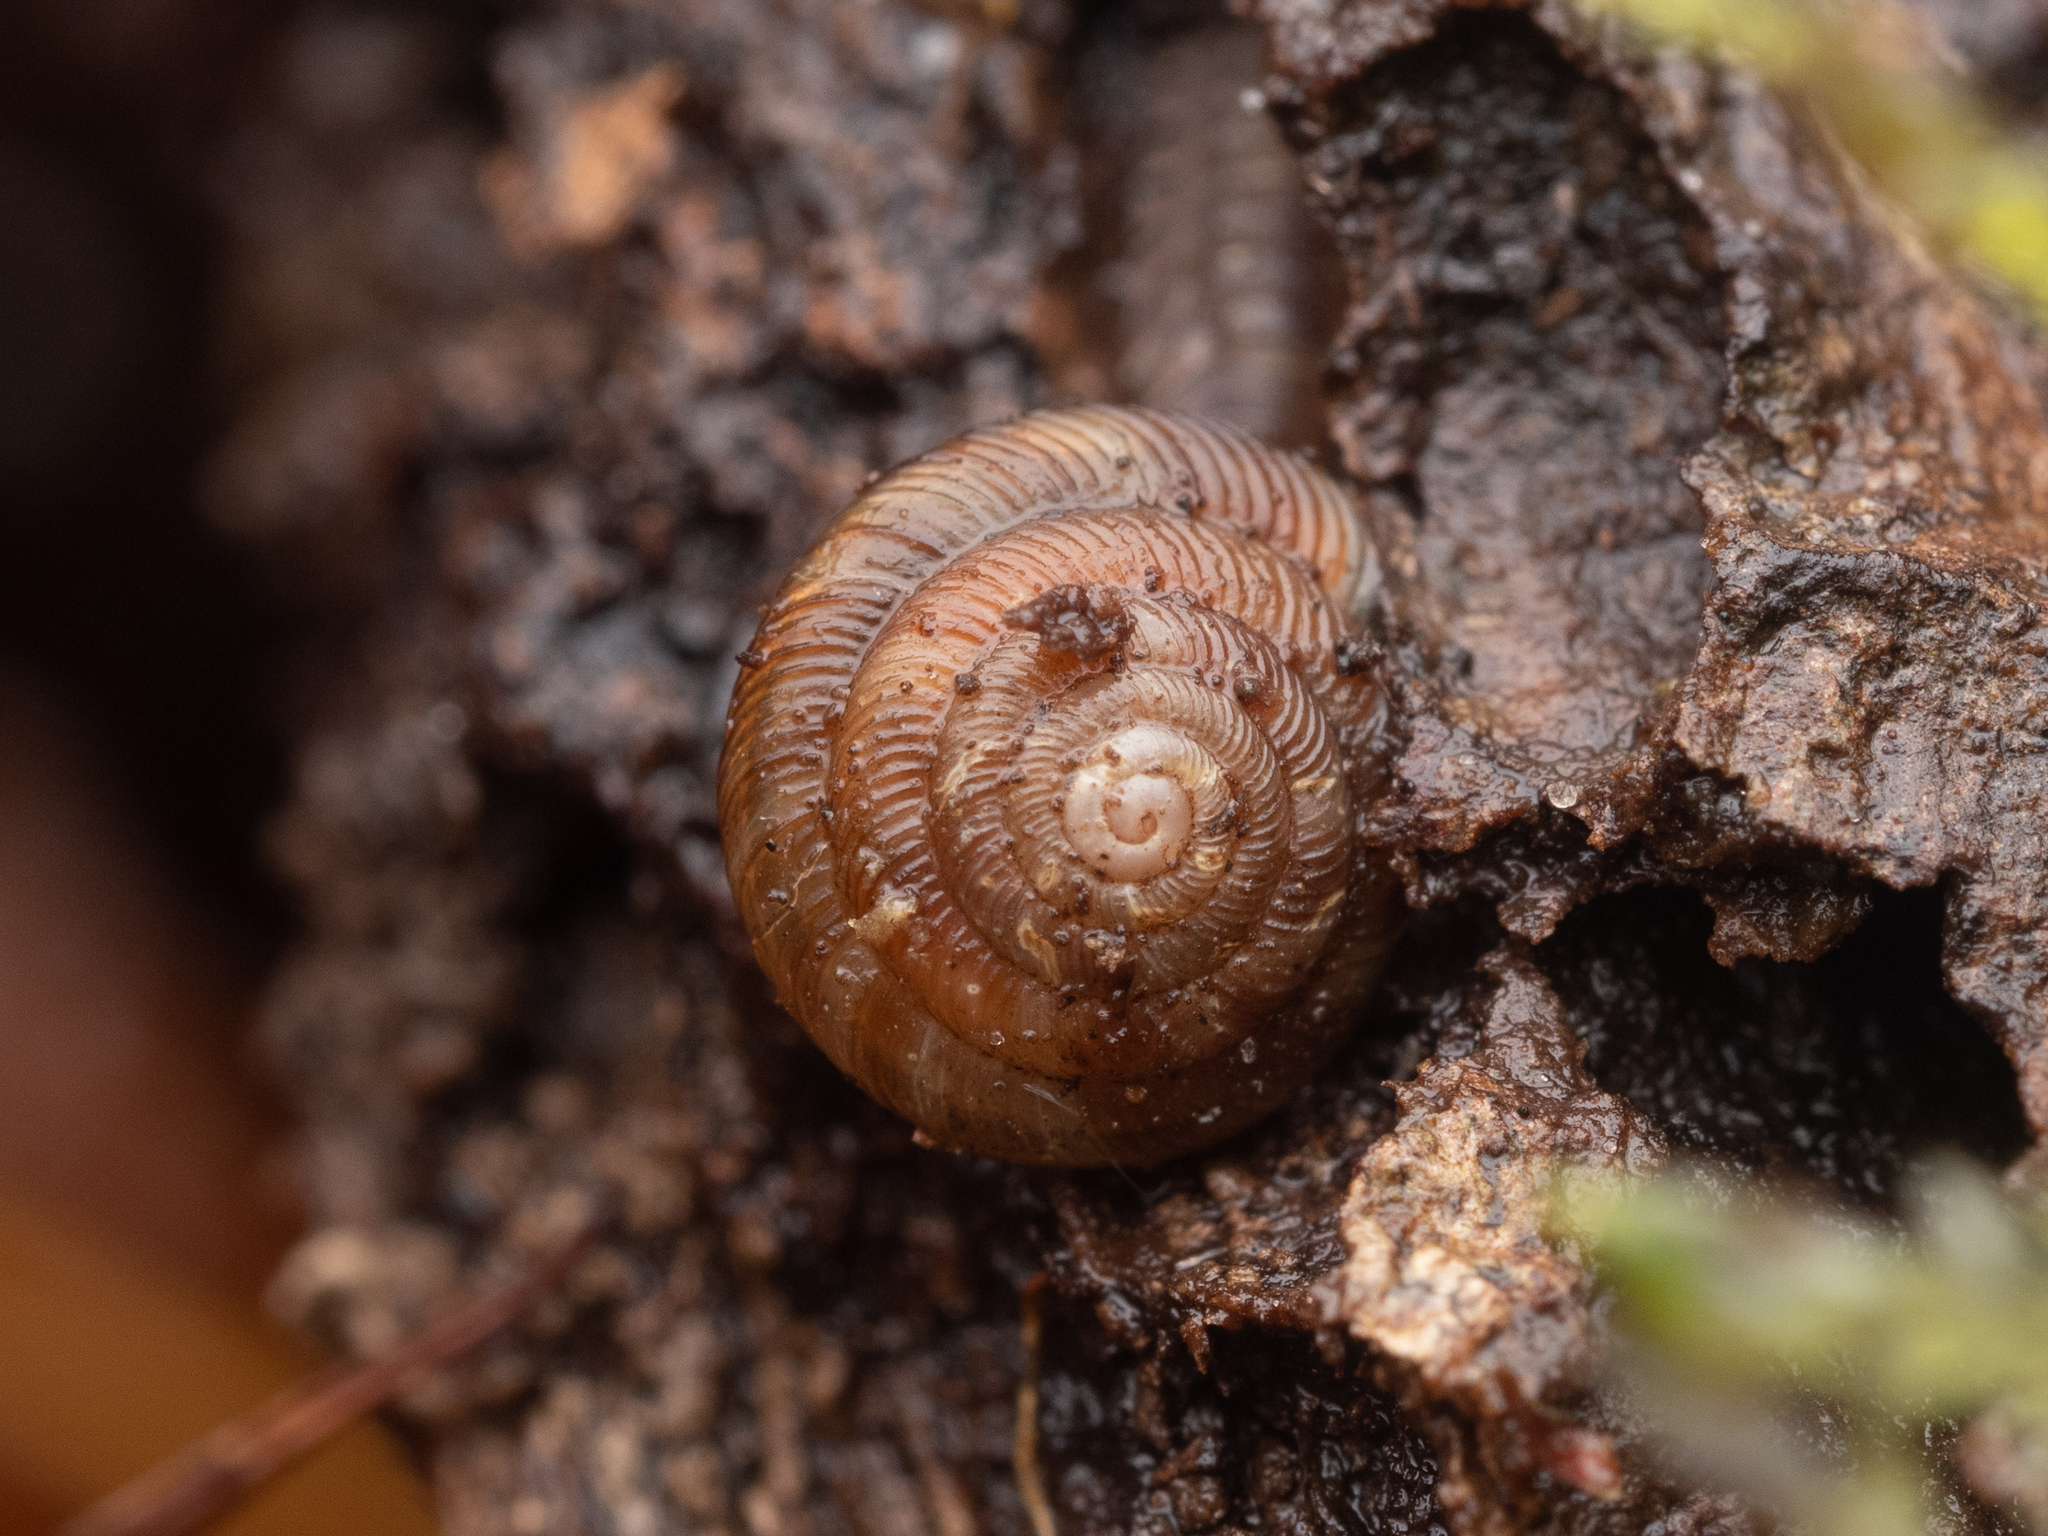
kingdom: Animalia
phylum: Mollusca
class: Gastropoda
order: Stylommatophora
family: Discidae
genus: Discus
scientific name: Discus rotundatus
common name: Rounded snail
